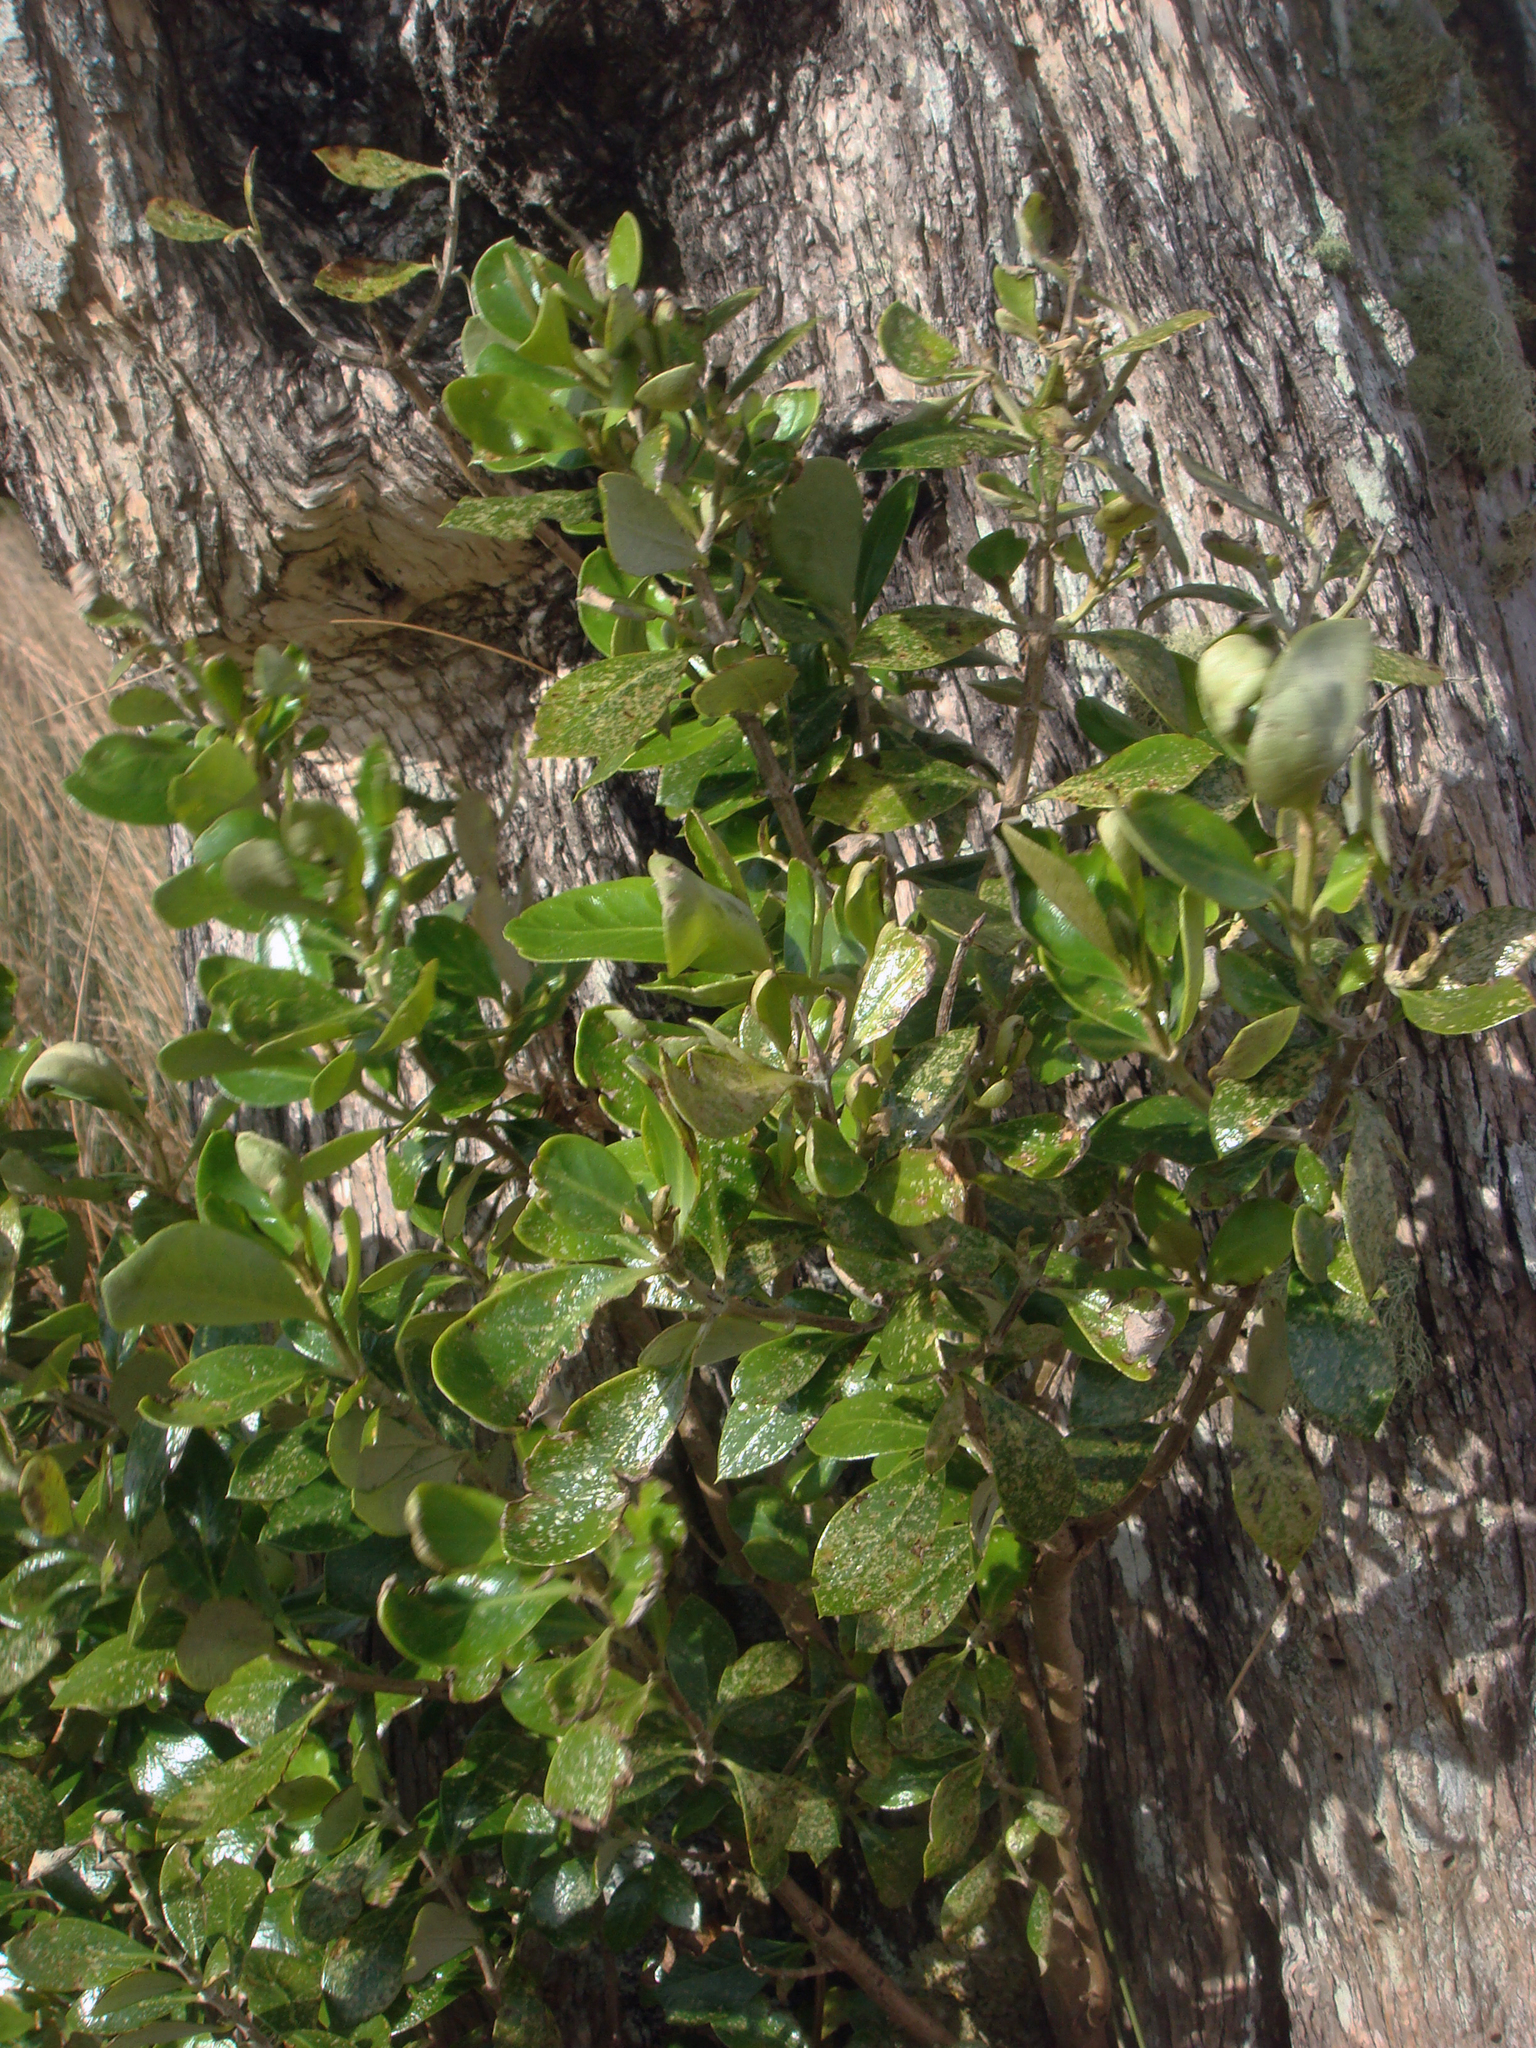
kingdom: Plantae
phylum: Tracheophyta
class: Magnoliopsida
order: Asterales
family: Asteraceae
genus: Olearia
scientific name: Olearia telmatica
